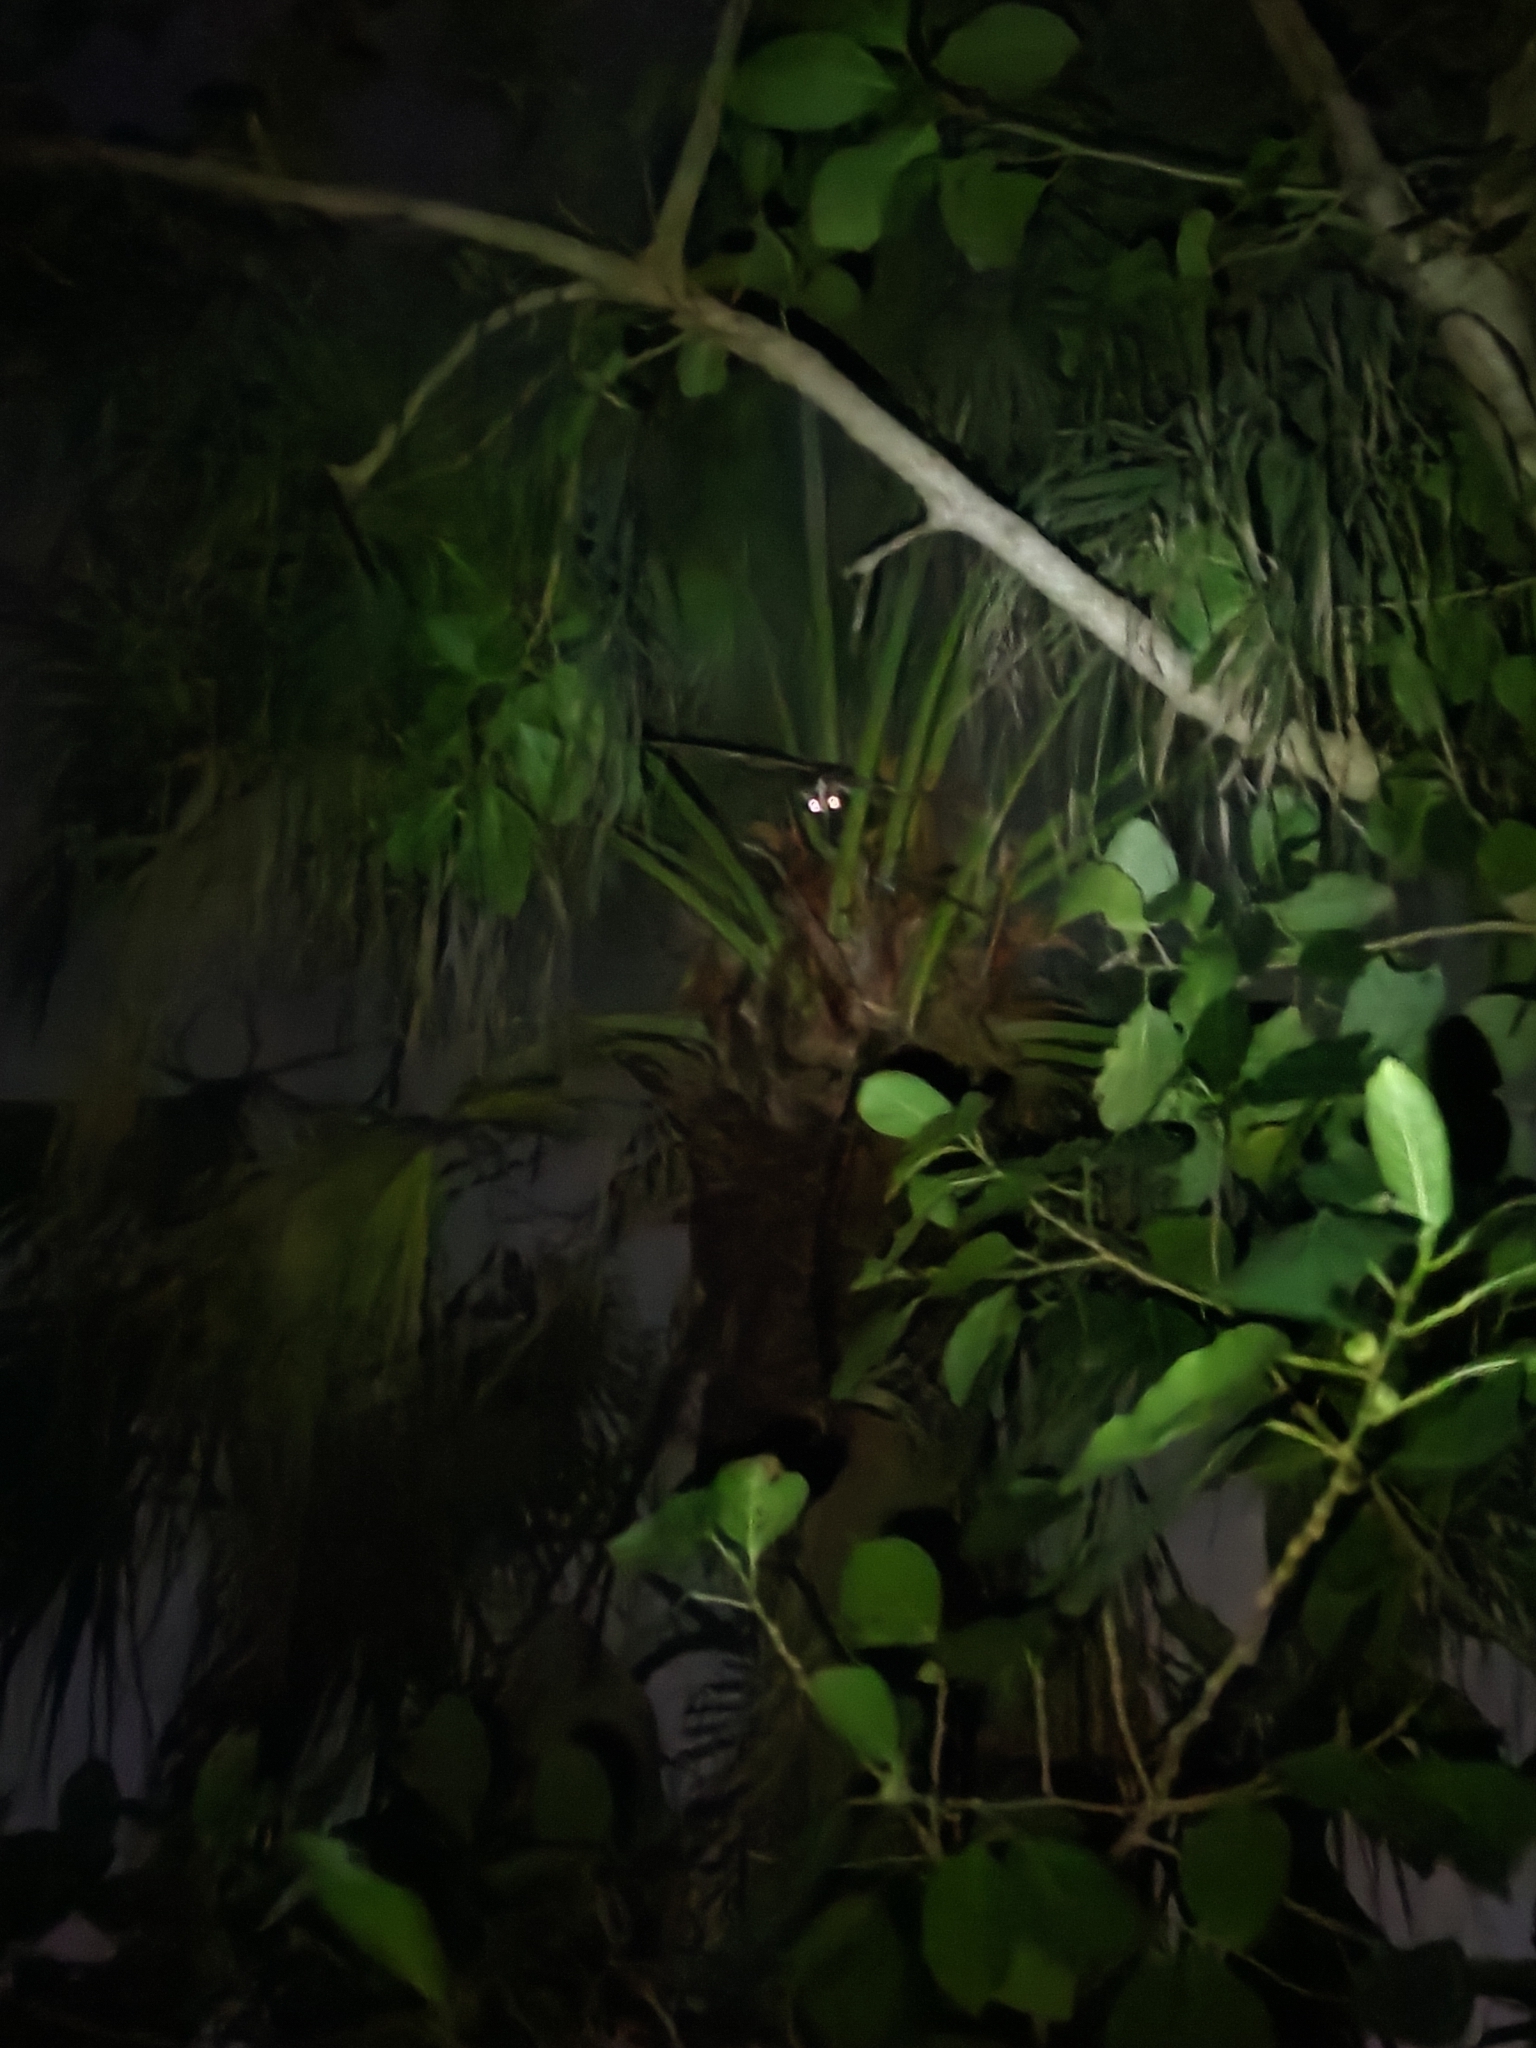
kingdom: Animalia
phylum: Chordata
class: Mammalia
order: Carnivora
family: Viverridae
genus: Paguma
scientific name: Paguma larvata
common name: Masked palm civet
